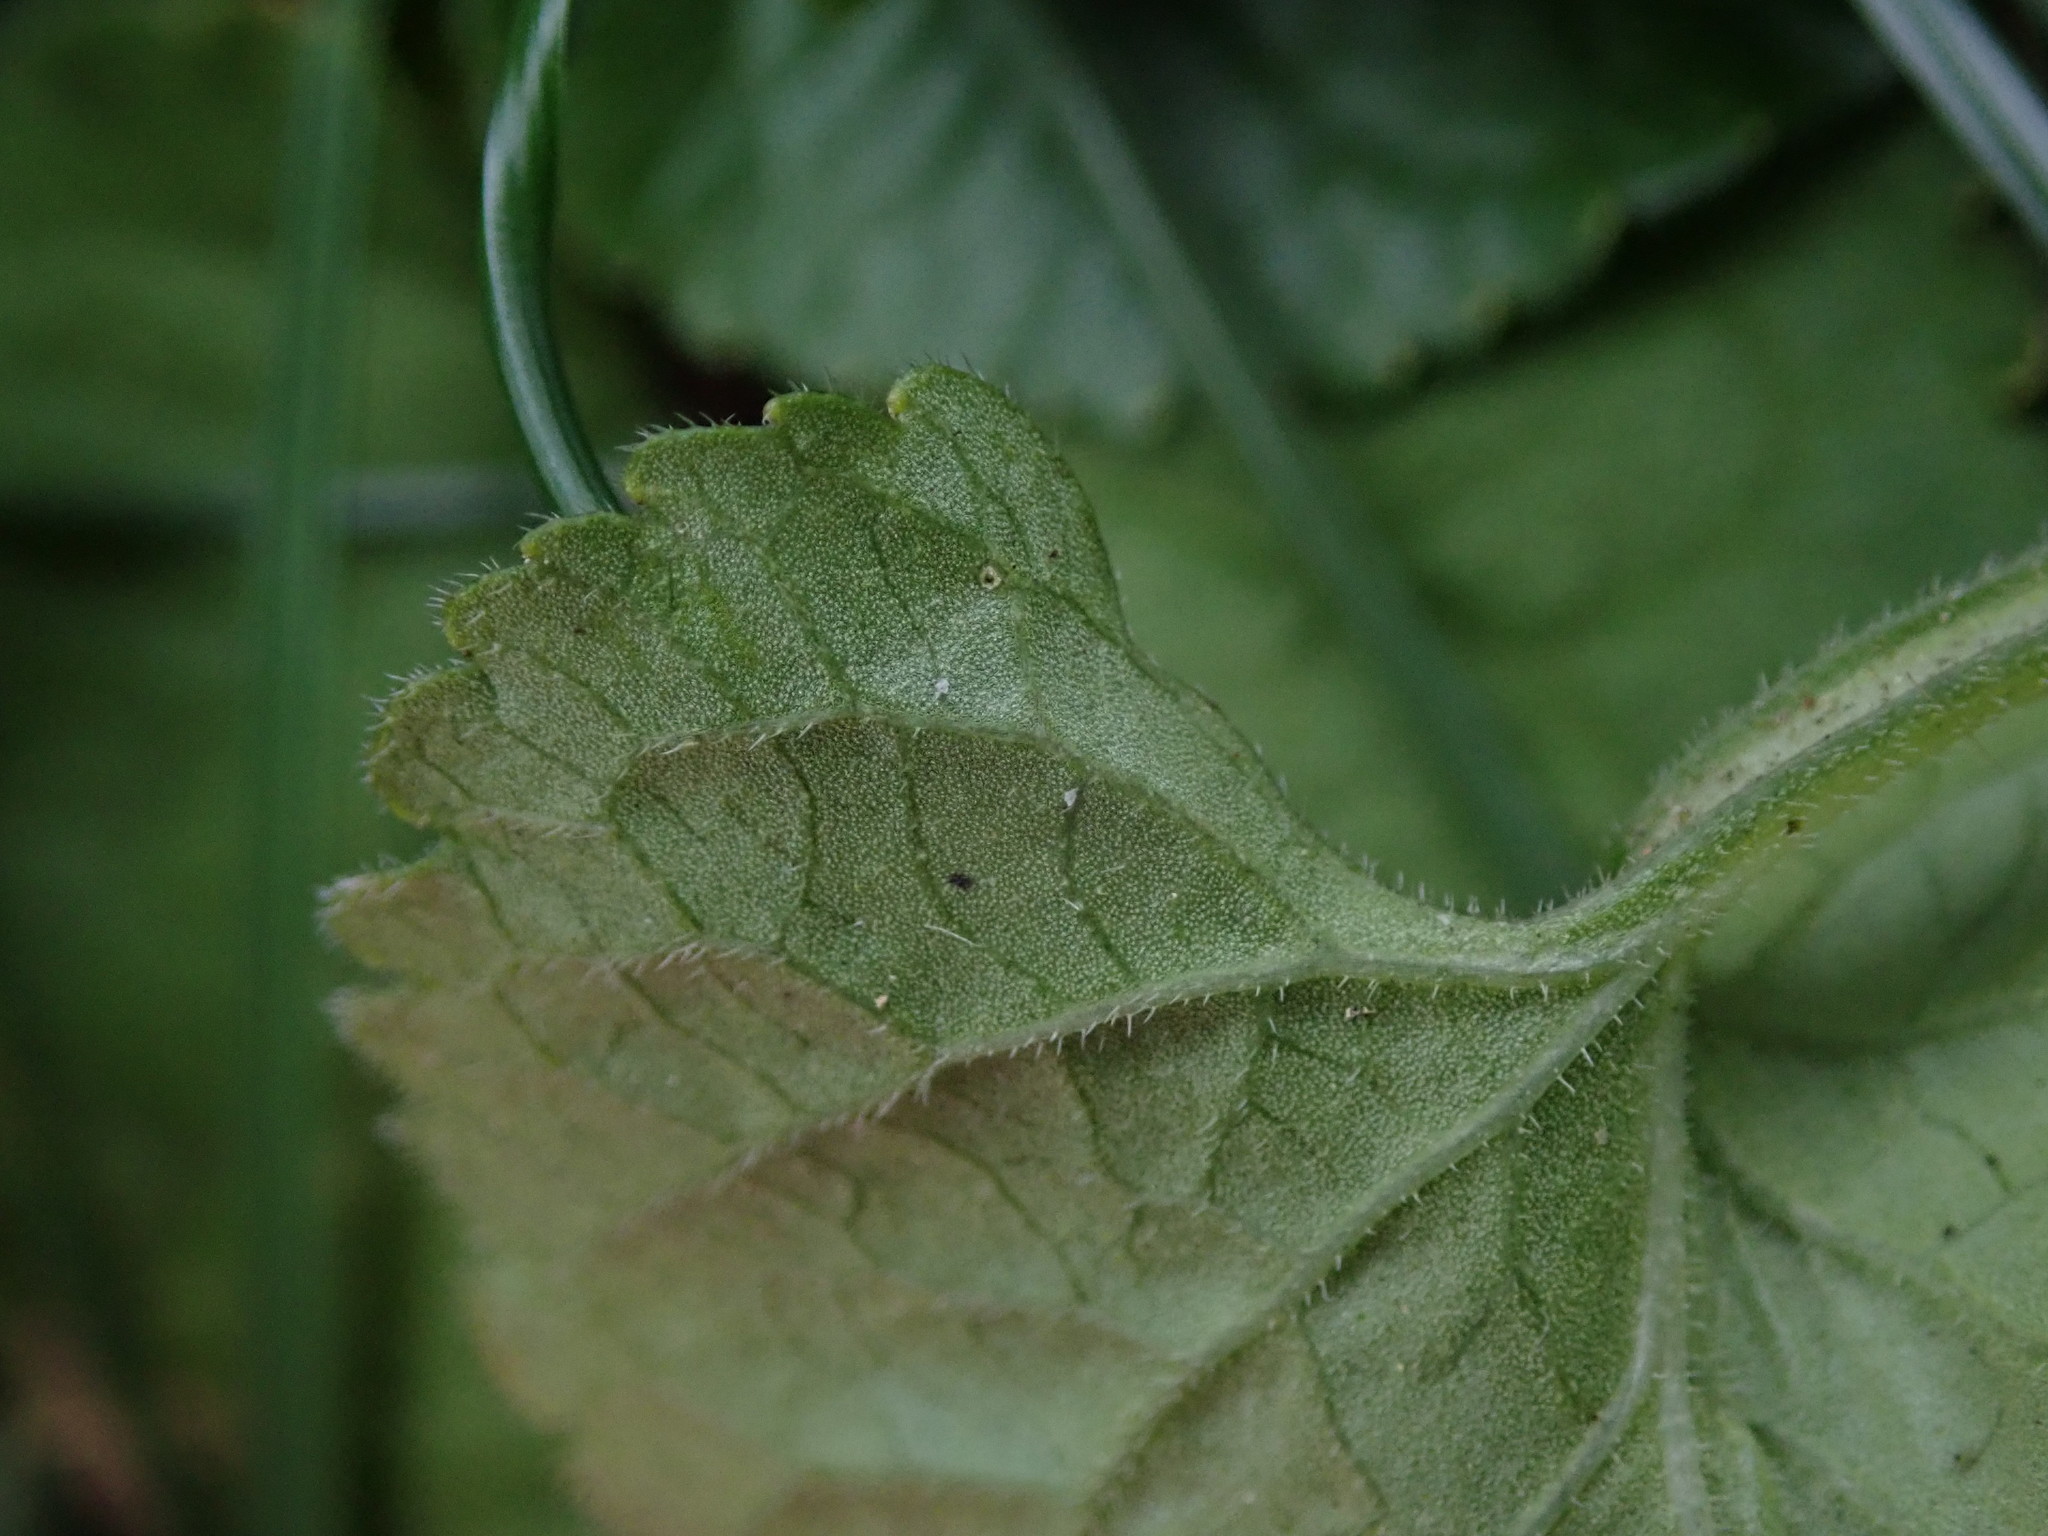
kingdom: Plantae
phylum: Tracheophyta
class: Magnoliopsida
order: Malpighiales
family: Violaceae
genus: Viola
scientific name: Viola odorata
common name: Sweet violet
